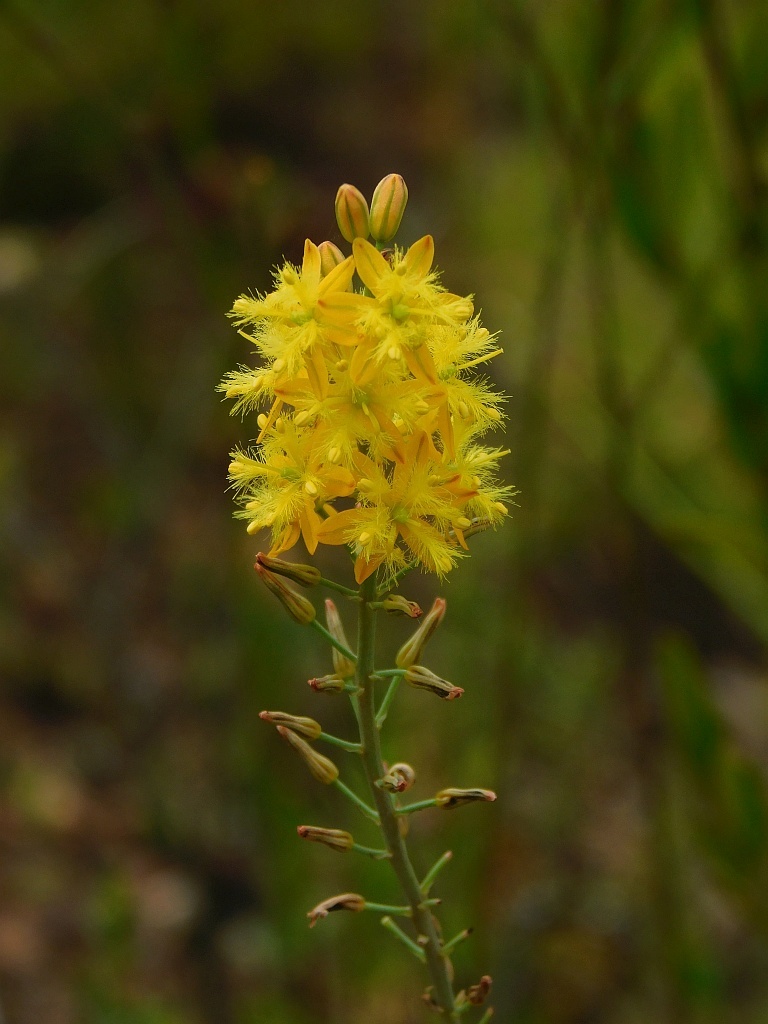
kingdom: Plantae
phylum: Tracheophyta
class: Liliopsida
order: Asparagales
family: Asphodelaceae
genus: Bulbine
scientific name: Bulbine cepacea
